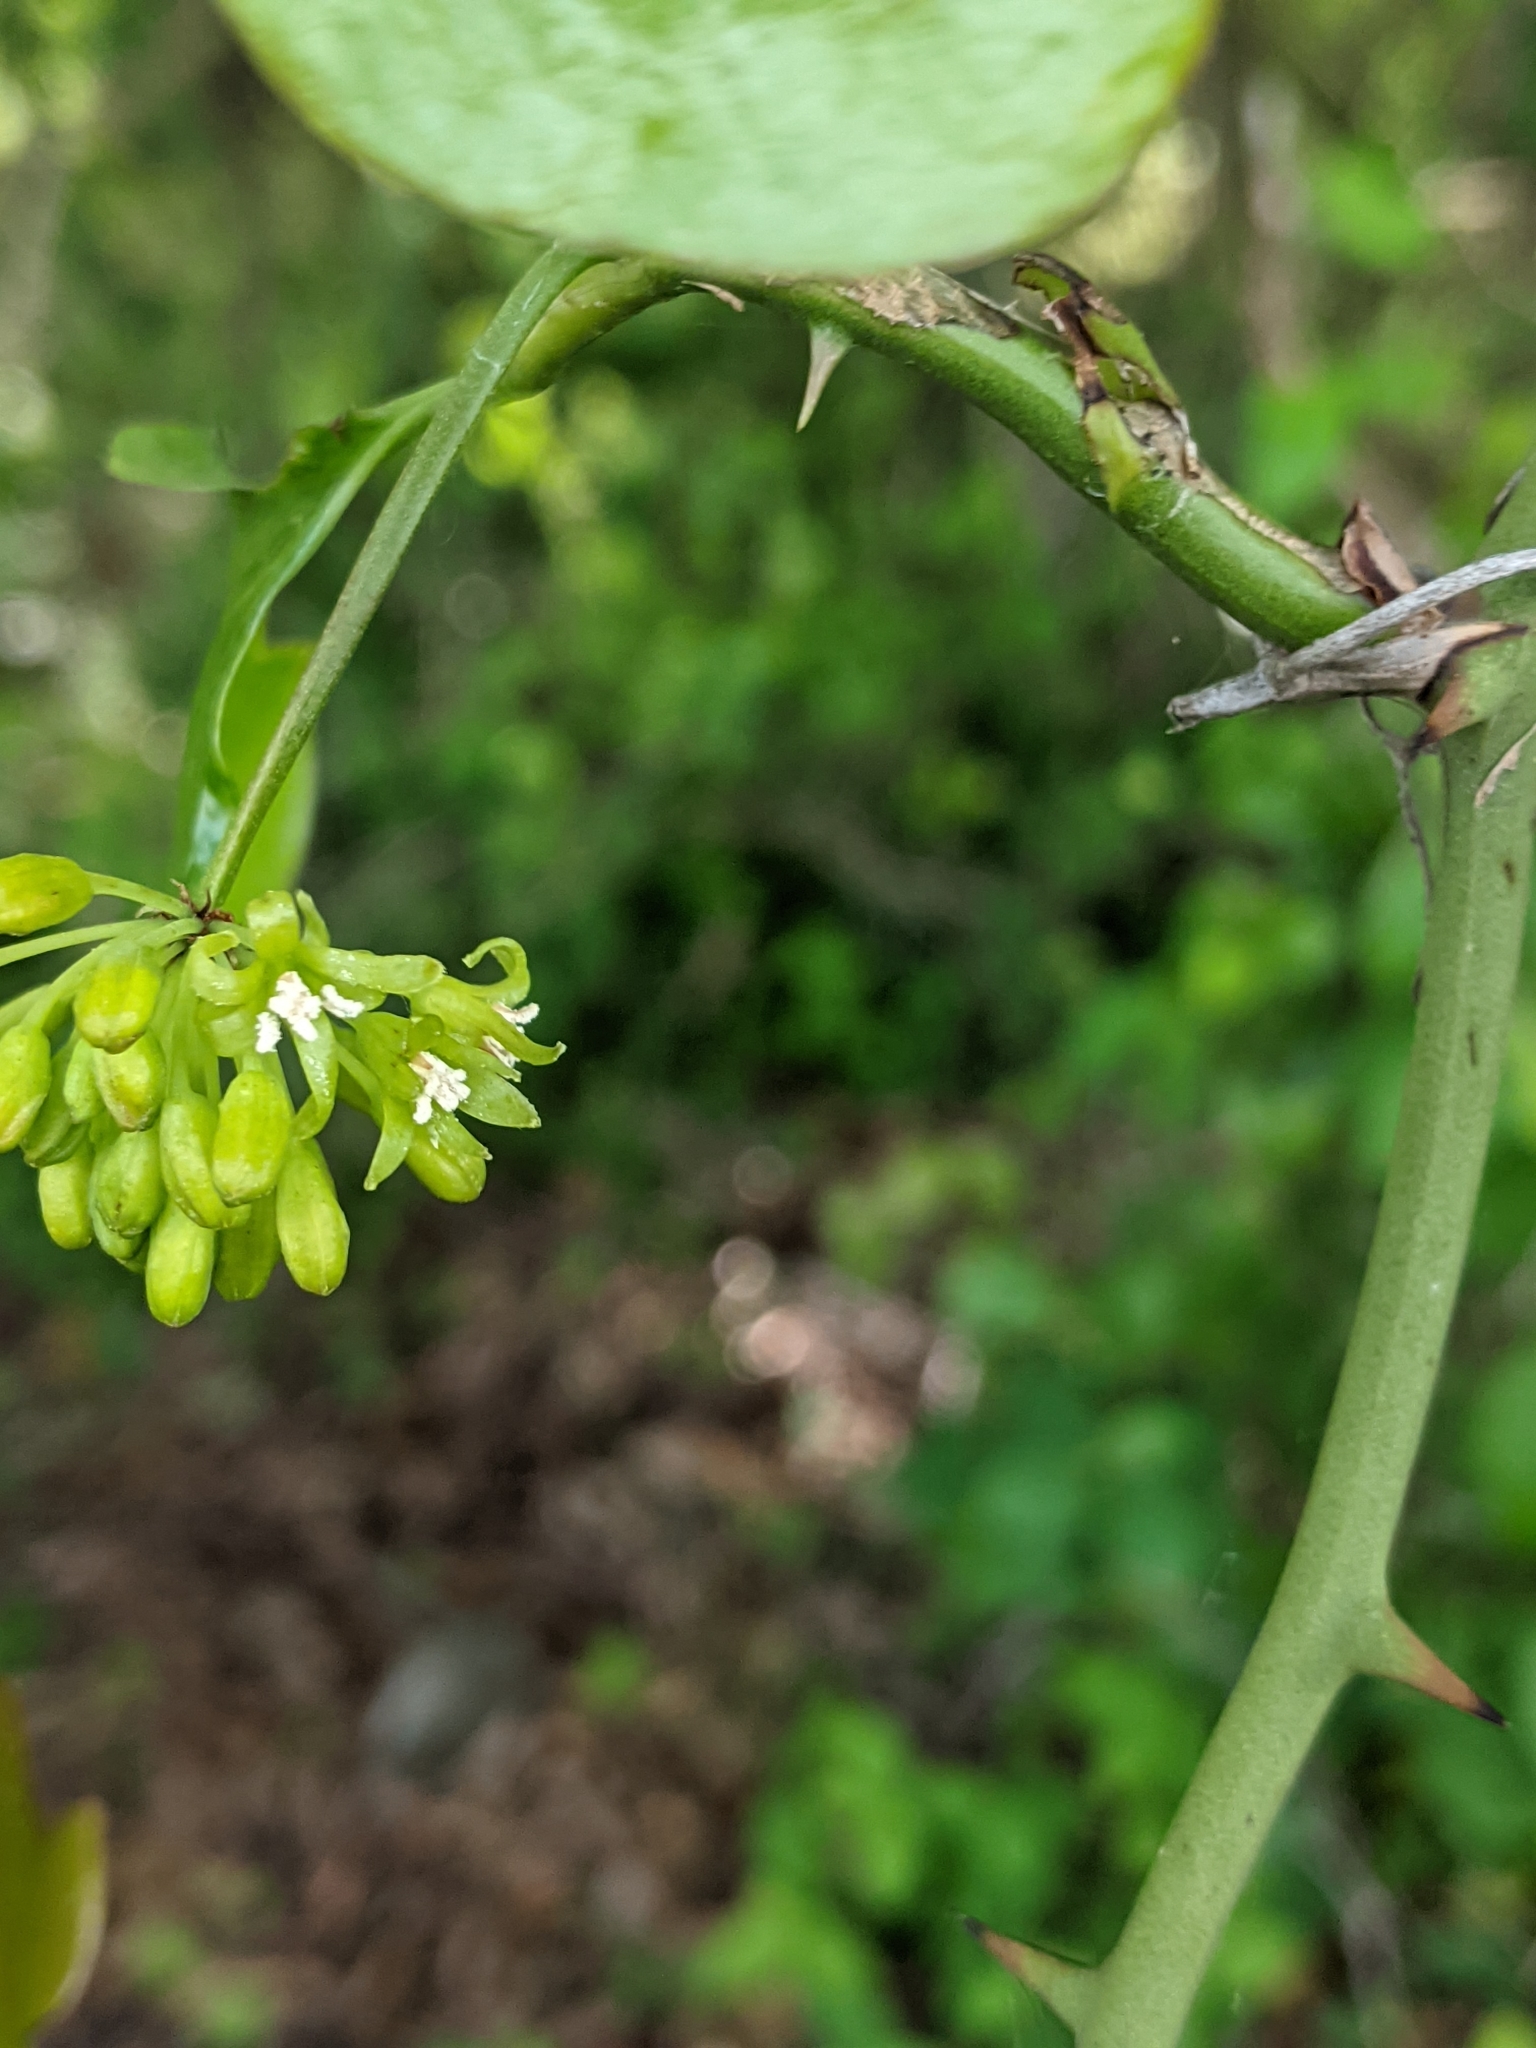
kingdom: Plantae
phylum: Tracheophyta
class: Liliopsida
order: Liliales
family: Smilacaceae
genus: Smilax
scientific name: Smilax bona-nox
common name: Catbrier
